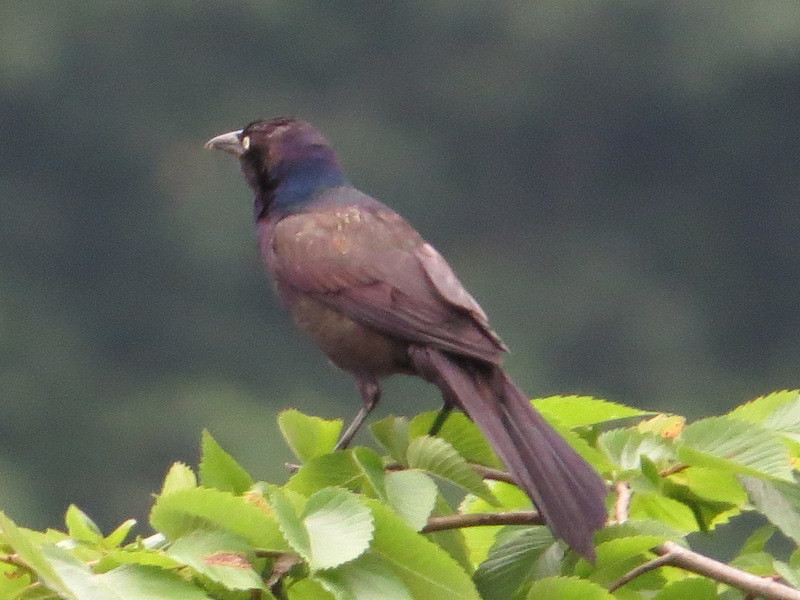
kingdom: Animalia
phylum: Chordata
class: Aves
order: Passeriformes
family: Icteridae
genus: Quiscalus
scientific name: Quiscalus quiscula
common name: Common grackle
